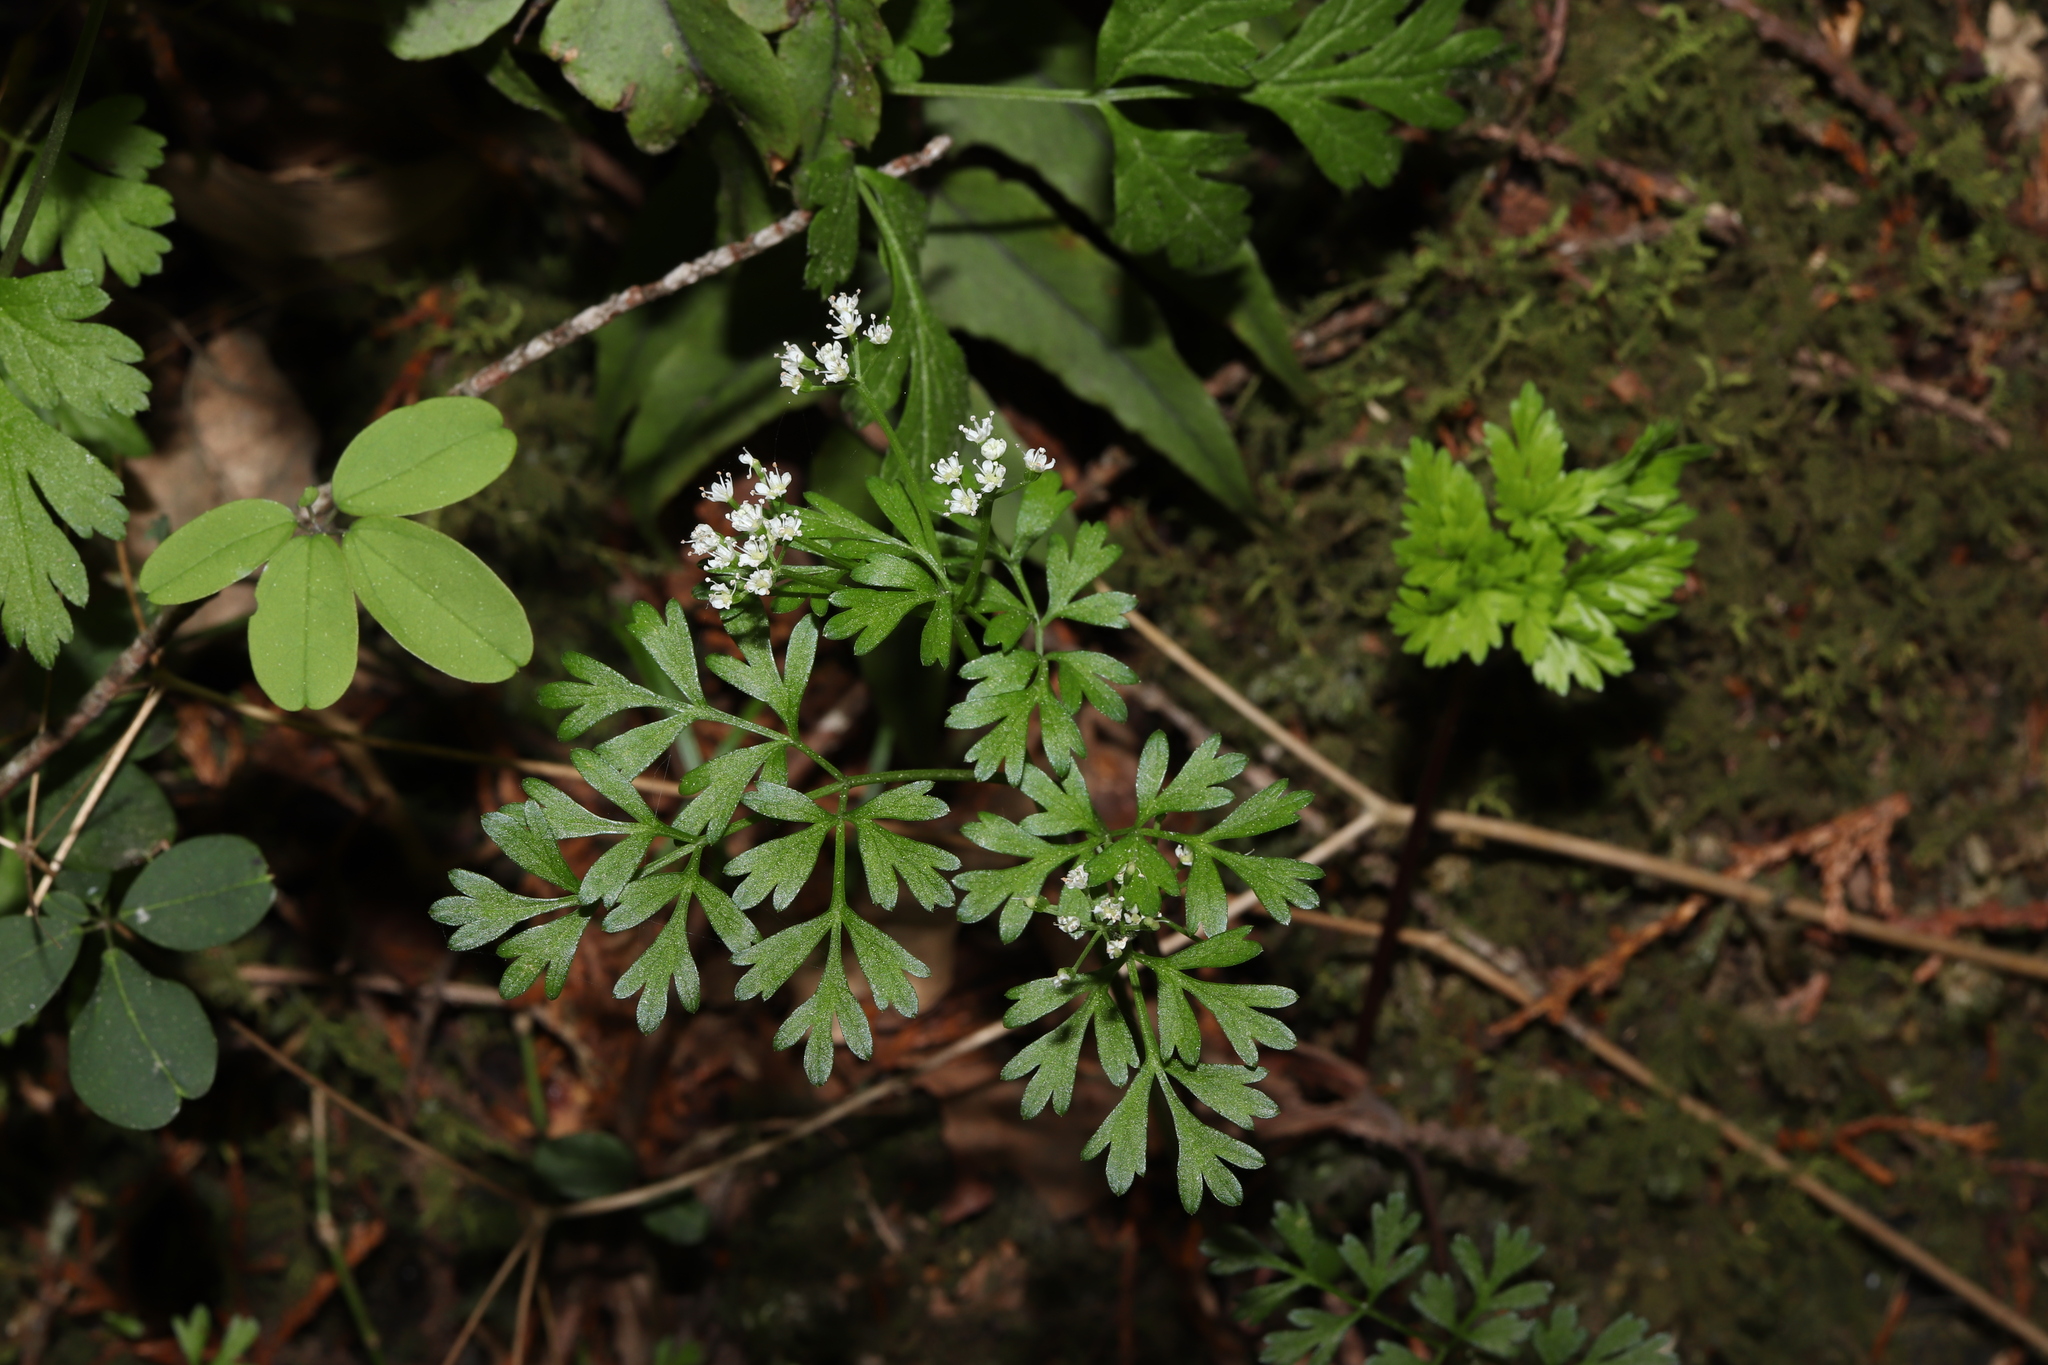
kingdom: Plantae
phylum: Tracheophyta
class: Magnoliopsida
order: Apiales
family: Apiaceae
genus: Aegopodium
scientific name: Aegopodium decumbens
